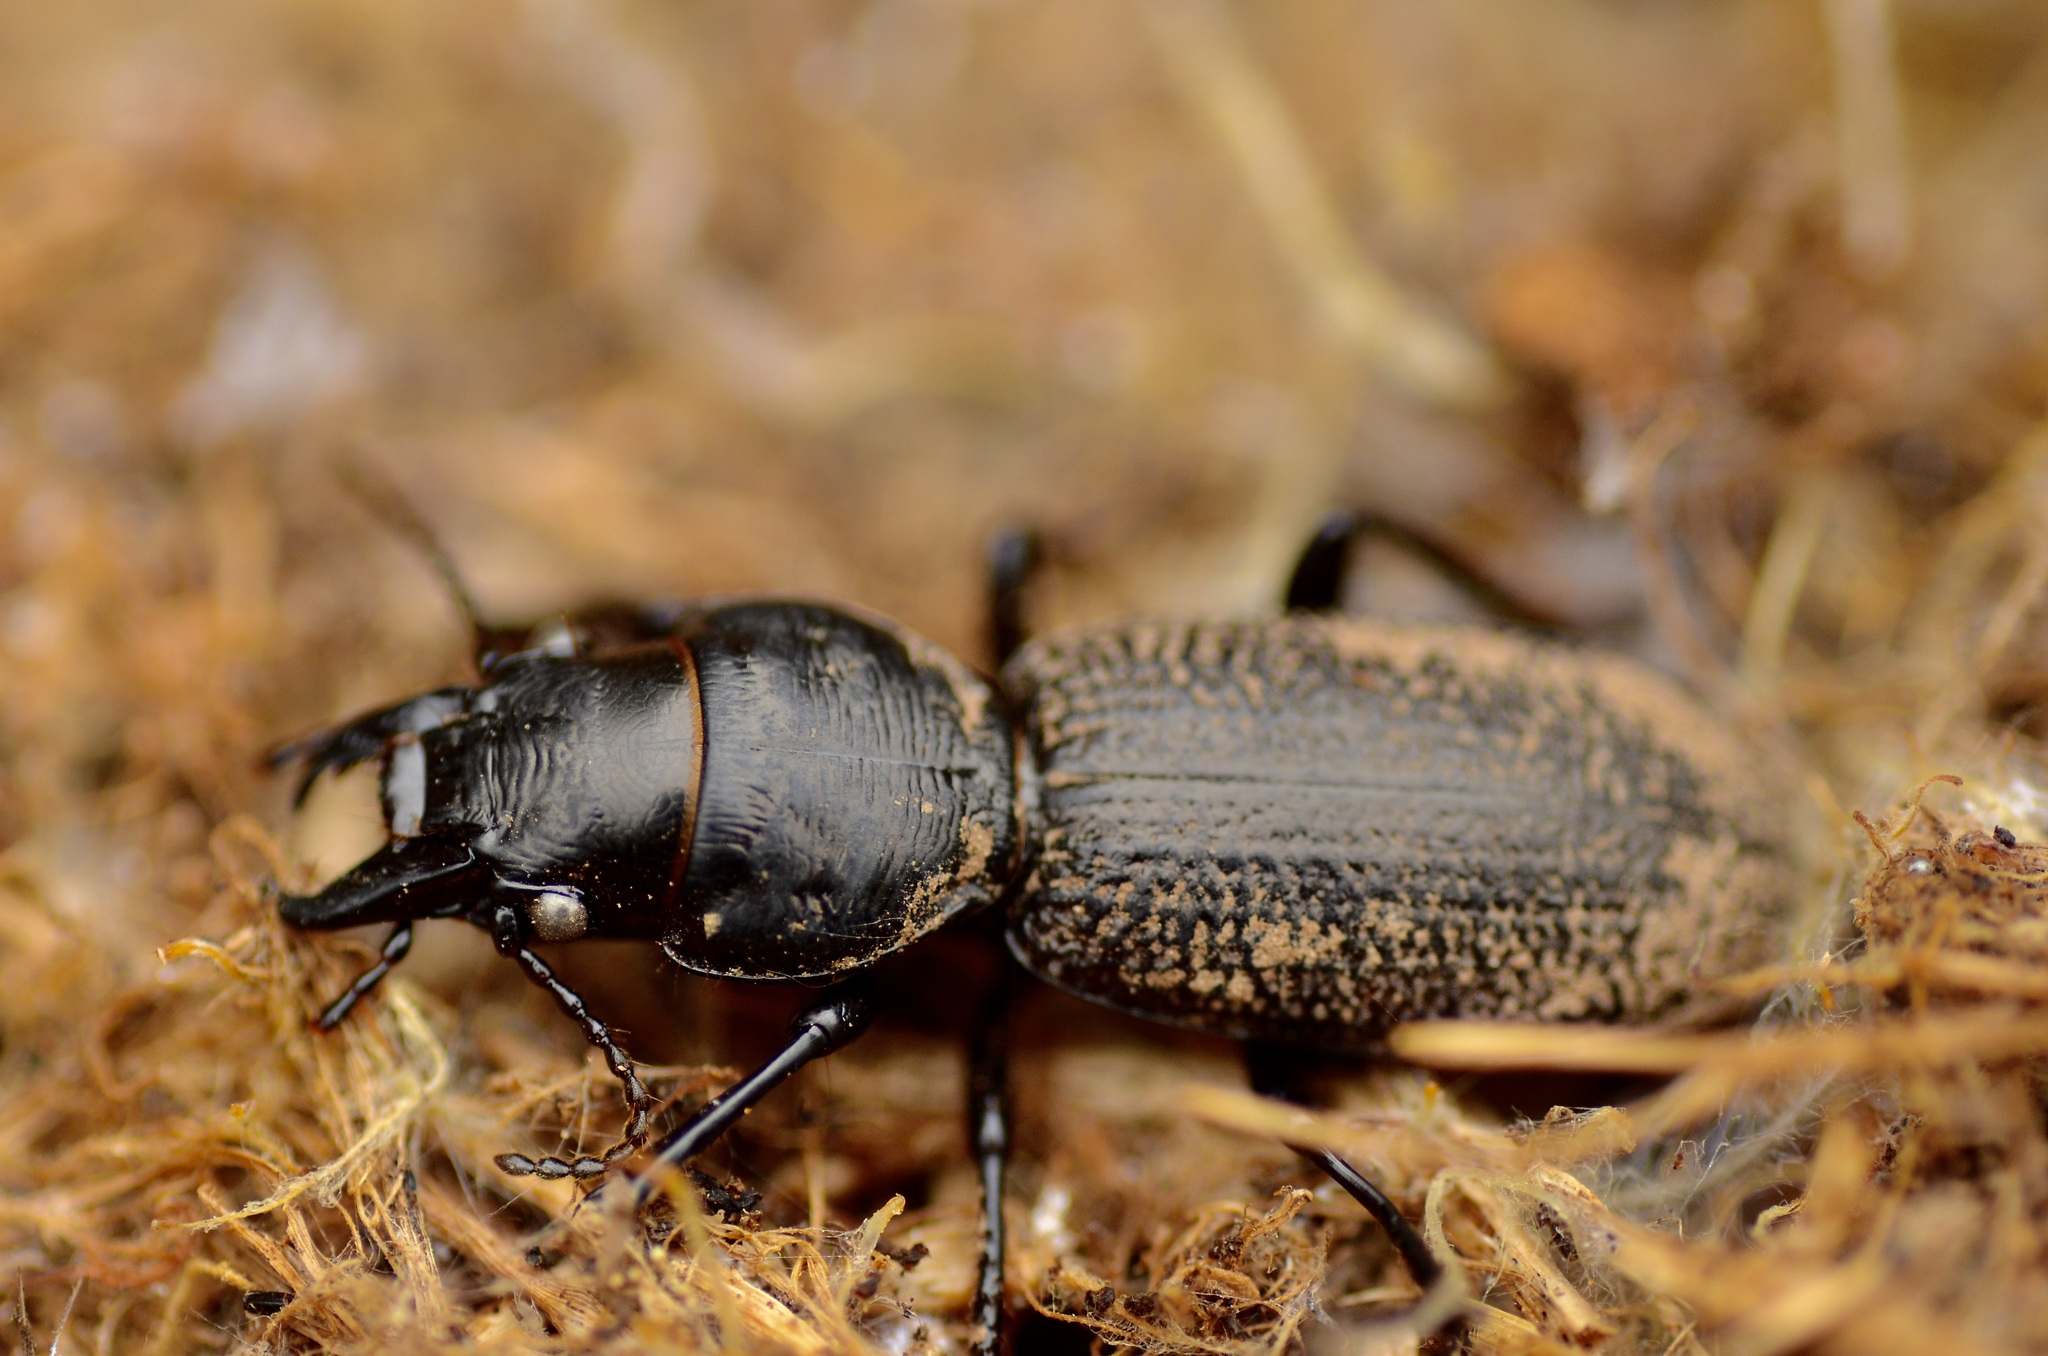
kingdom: Animalia
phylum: Arthropoda
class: Insecta
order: Coleoptera
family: Carabidae
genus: Mecodema
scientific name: Mecodema howittii
